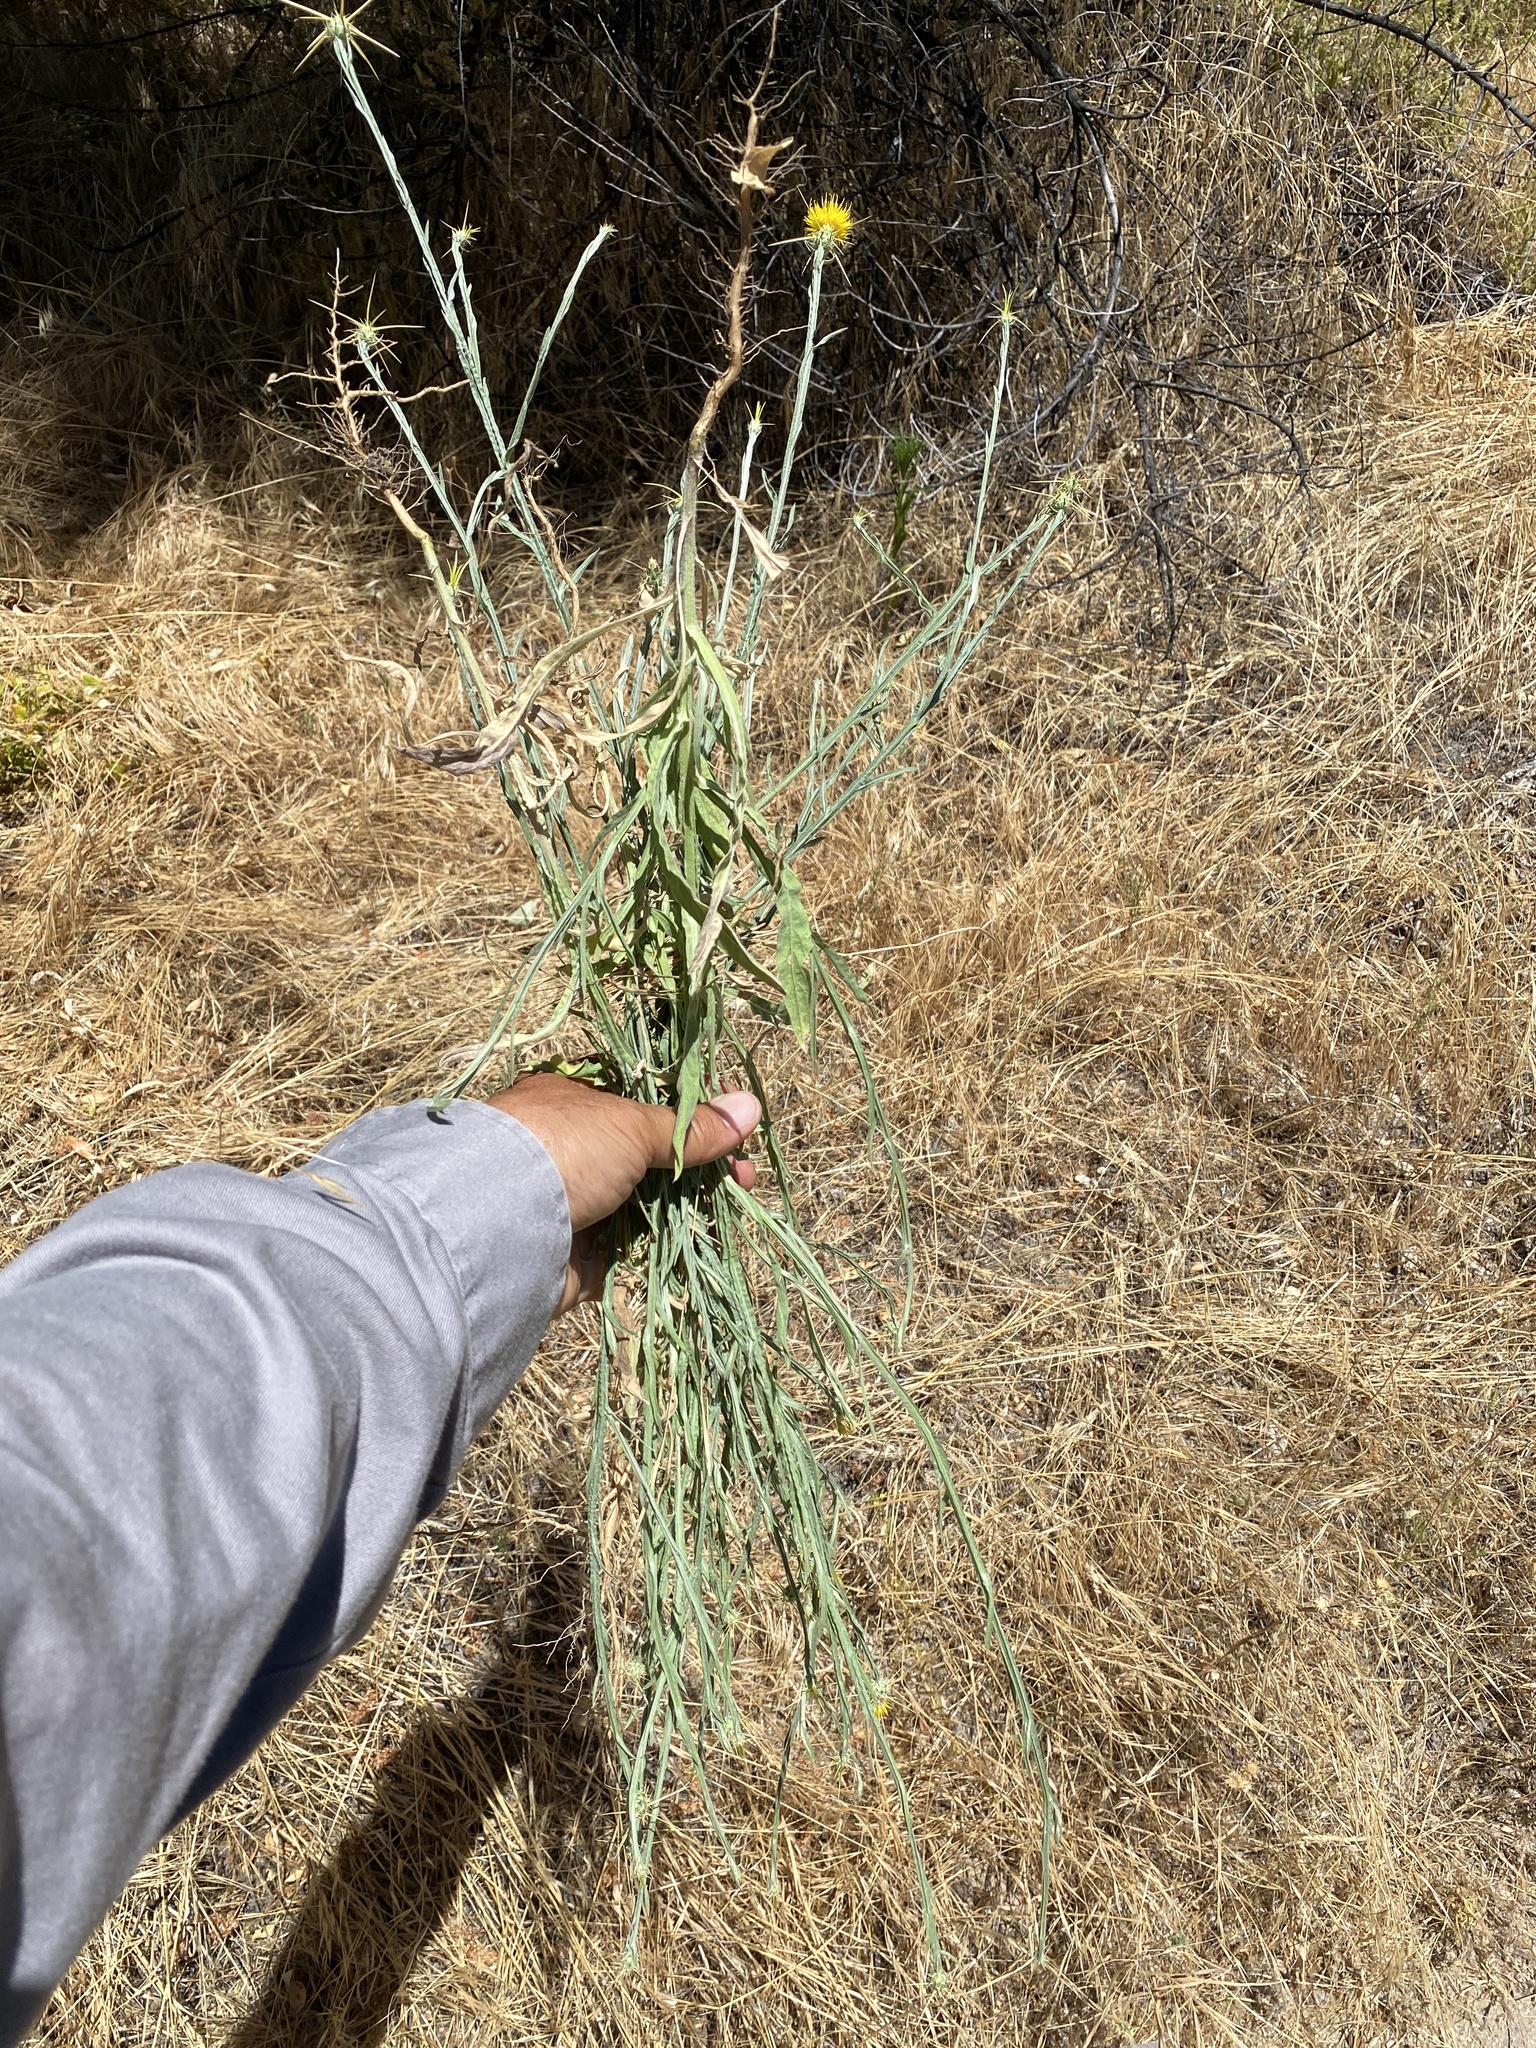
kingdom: Plantae
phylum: Tracheophyta
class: Magnoliopsida
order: Asterales
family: Asteraceae
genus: Centaurea
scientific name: Centaurea solstitialis
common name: Yellow star-thistle
